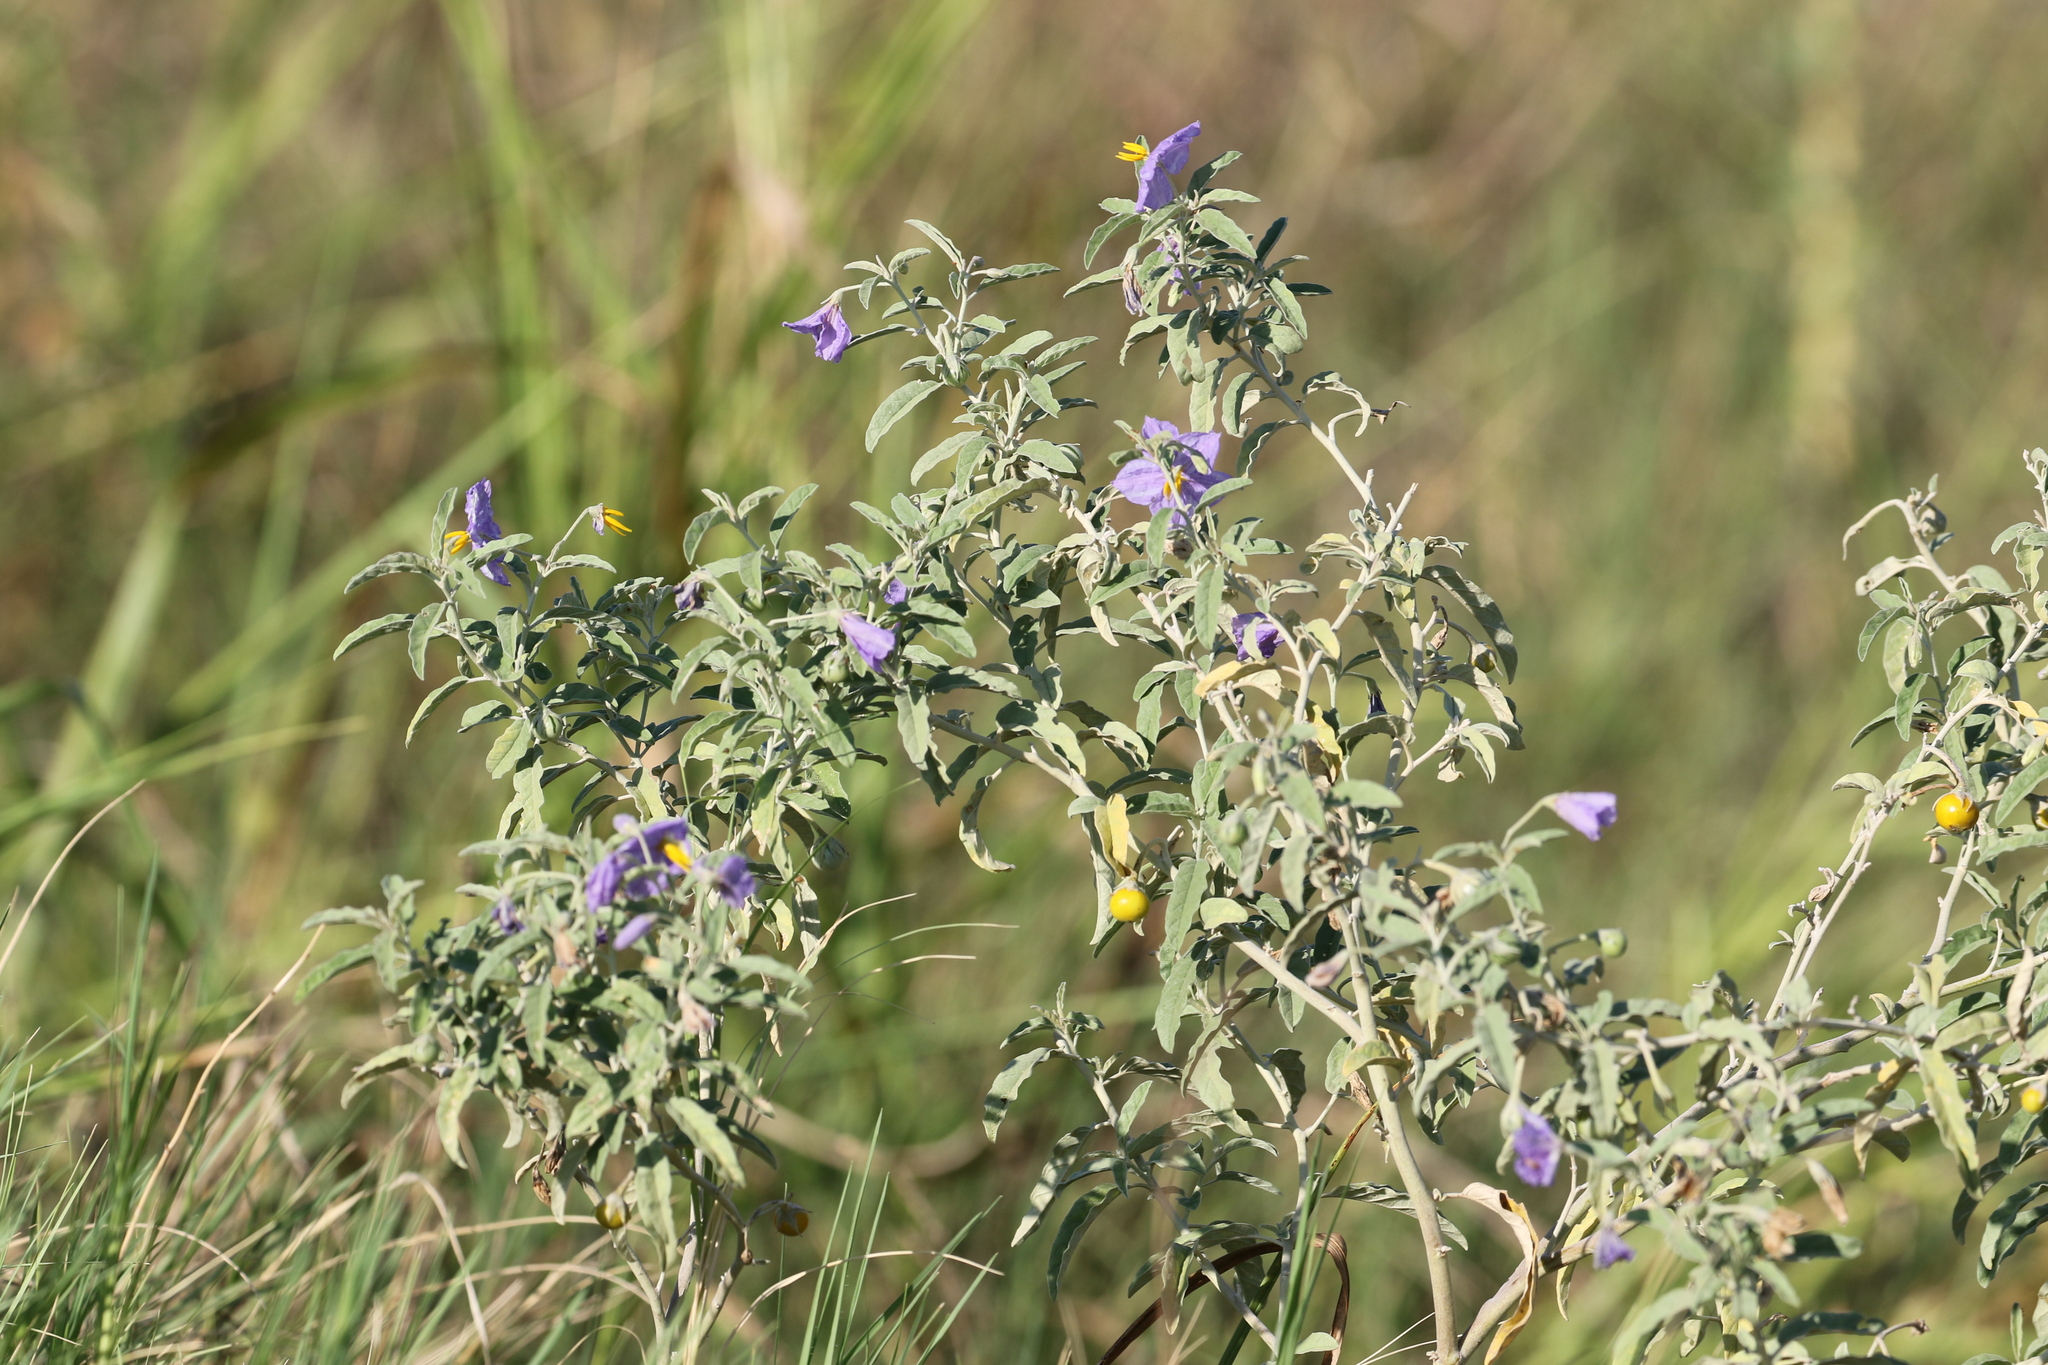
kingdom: Plantae
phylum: Tracheophyta
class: Magnoliopsida
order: Solanales
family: Solanaceae
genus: Solanum
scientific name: Solanum elaeagnifolium
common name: Silverleaf nightshade
